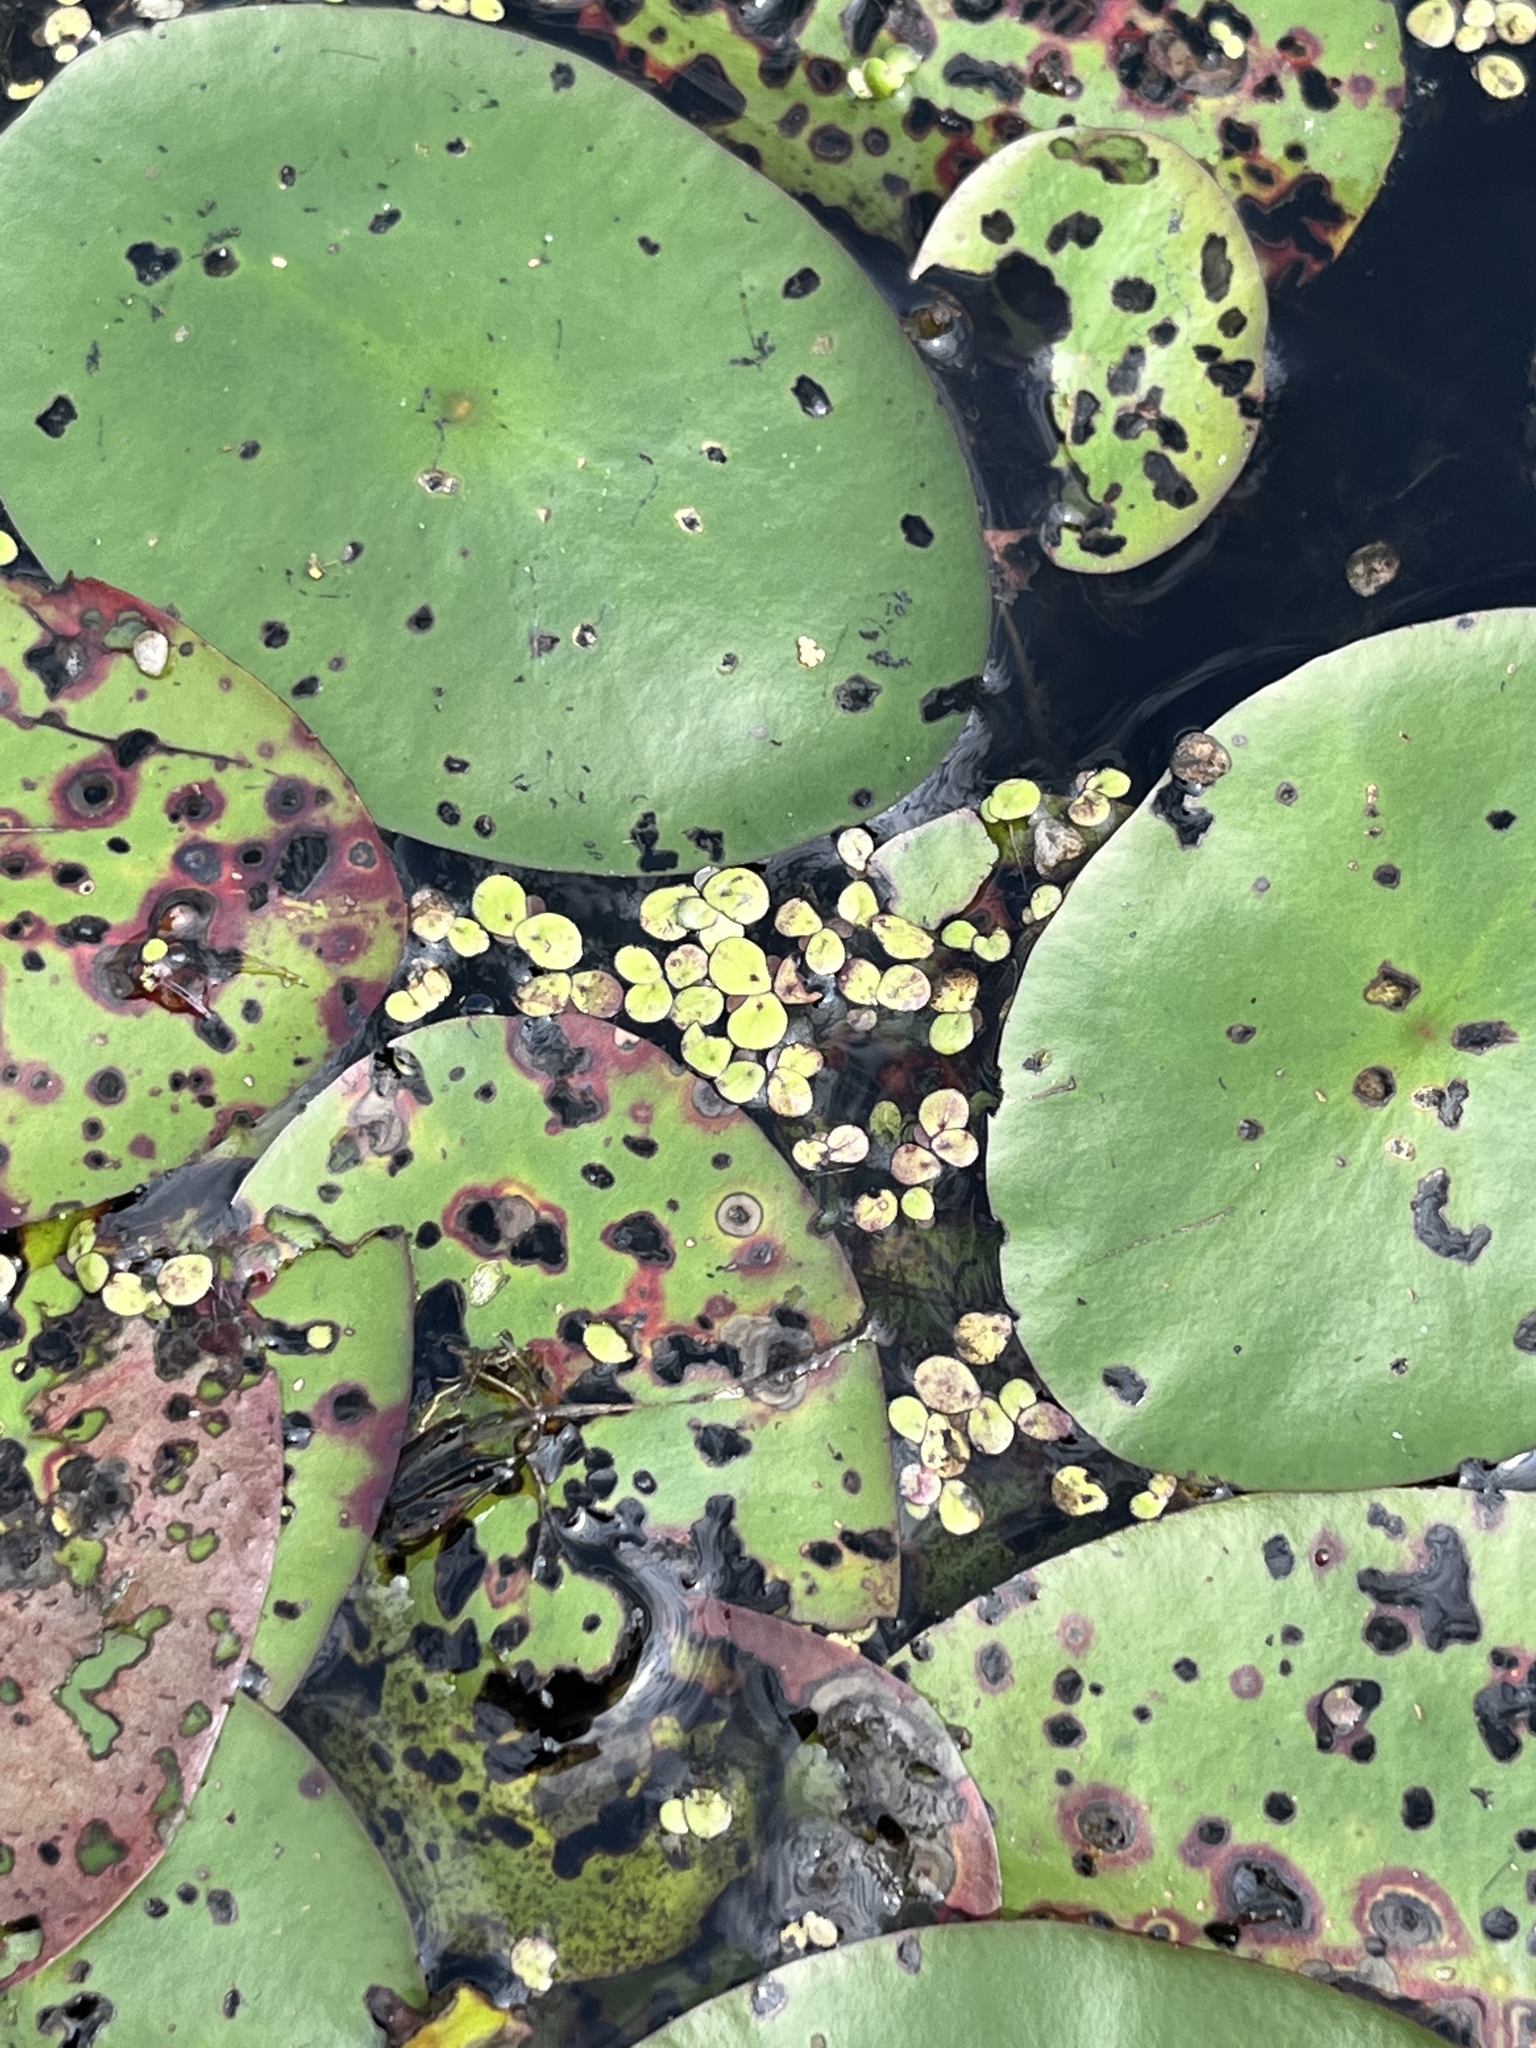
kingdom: Plantae
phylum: Tracheophyta
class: Liliopsida
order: Alismatales
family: Araceae
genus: Spirodela
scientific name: Spirodela polyrhiza
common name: Great duckweed
